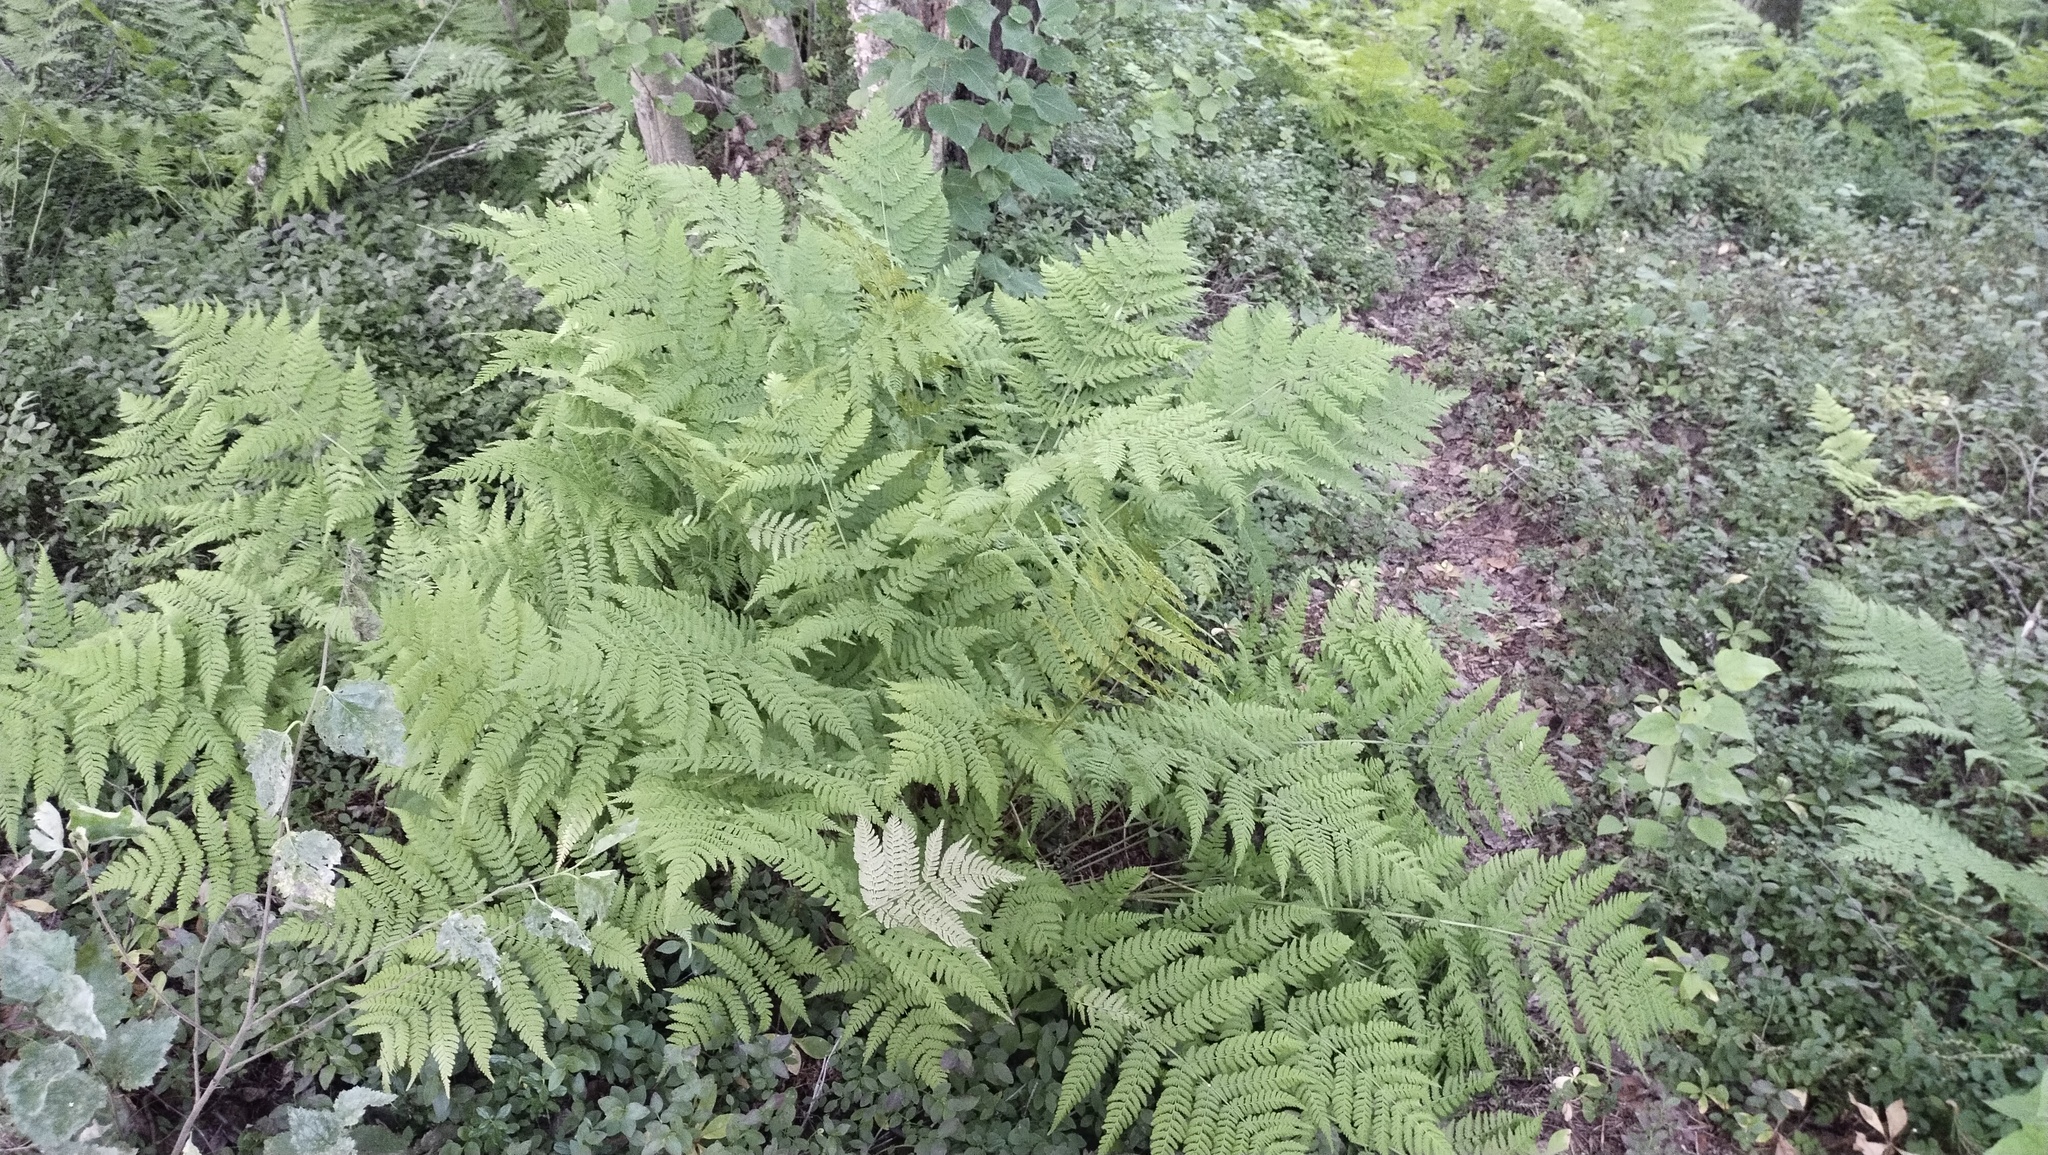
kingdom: Plantae
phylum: Tracheophyta
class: Polypodiopsida
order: Polypodiales
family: Dryopteridaceae
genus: Dryopteris
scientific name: Dryopteris expansa
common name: Northern buckler fern
